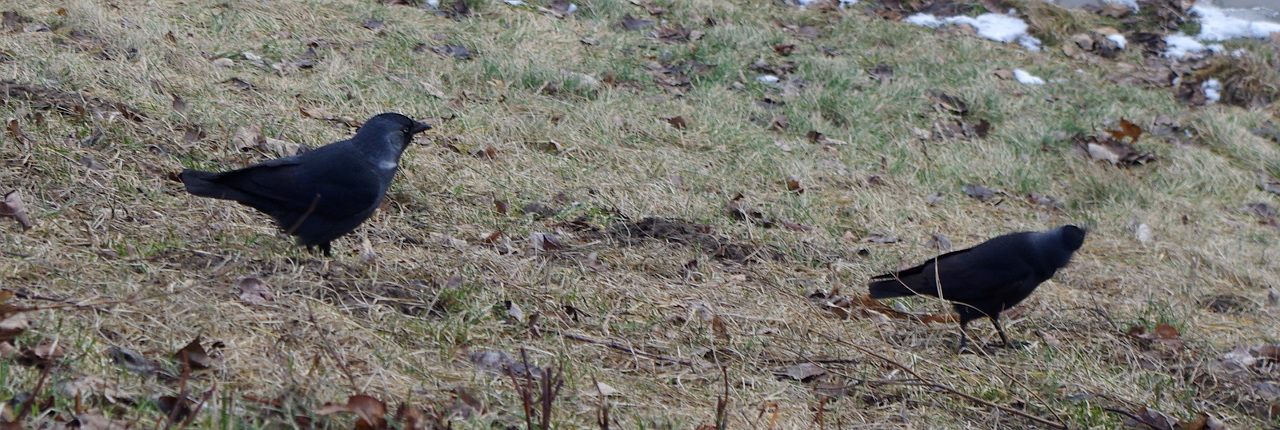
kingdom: Animalia
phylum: Chordata
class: Aves
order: Passeriformes
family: Corvidae
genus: Coloeus
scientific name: Coloeus monedula
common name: Western jackdaw
